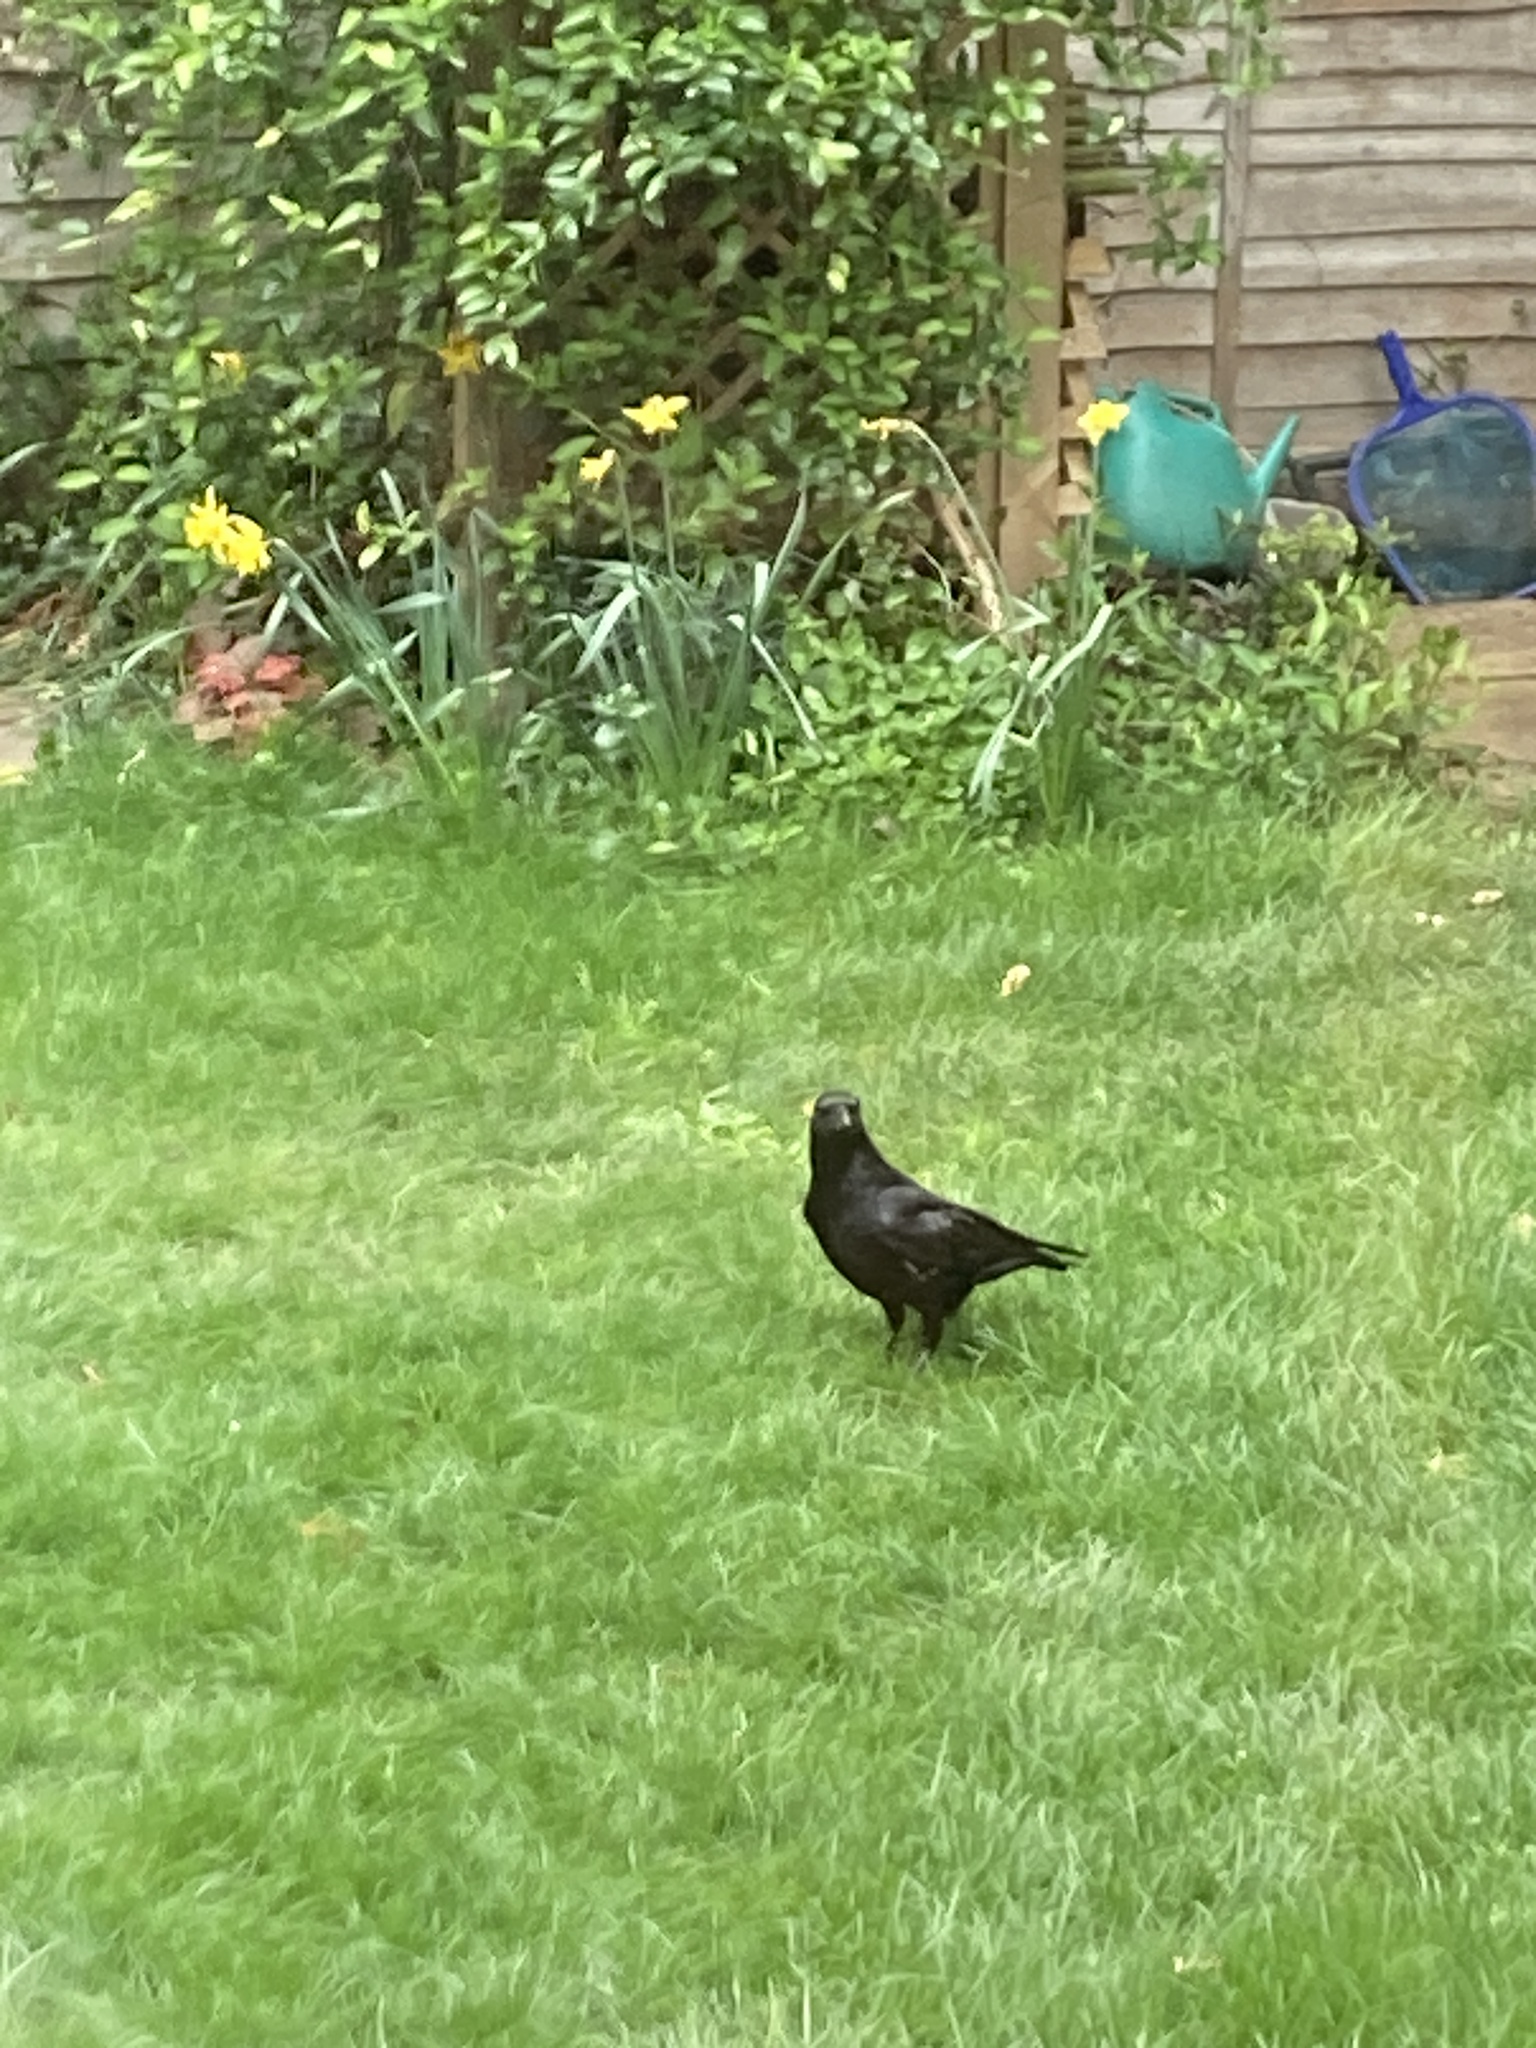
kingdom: Animalia
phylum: Chordata
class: Aves
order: Passeriformes
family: Corvidae
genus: Corvus
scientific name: Corvus corone
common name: Carrion crow
